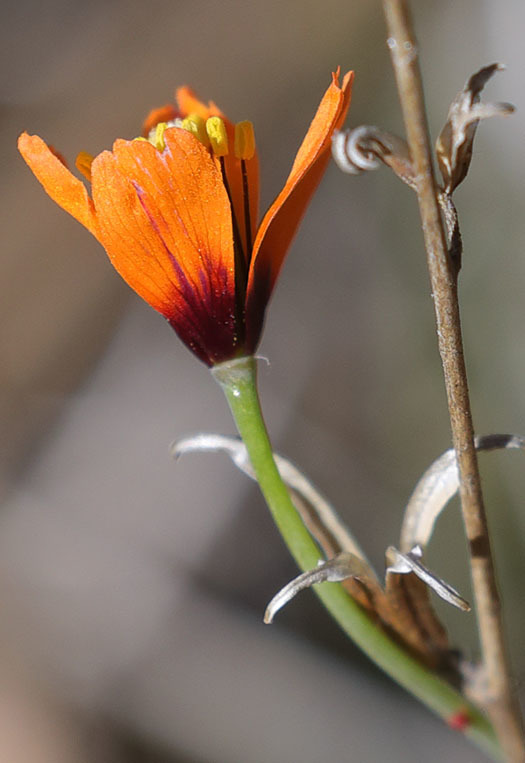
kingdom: Plantae
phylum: Tracheophyta
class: Magnoliopsida
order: Ranunculales
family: Papaveraceae
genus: Stylomecon
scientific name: Stylomecon heterophylla
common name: Flaming-poppy
